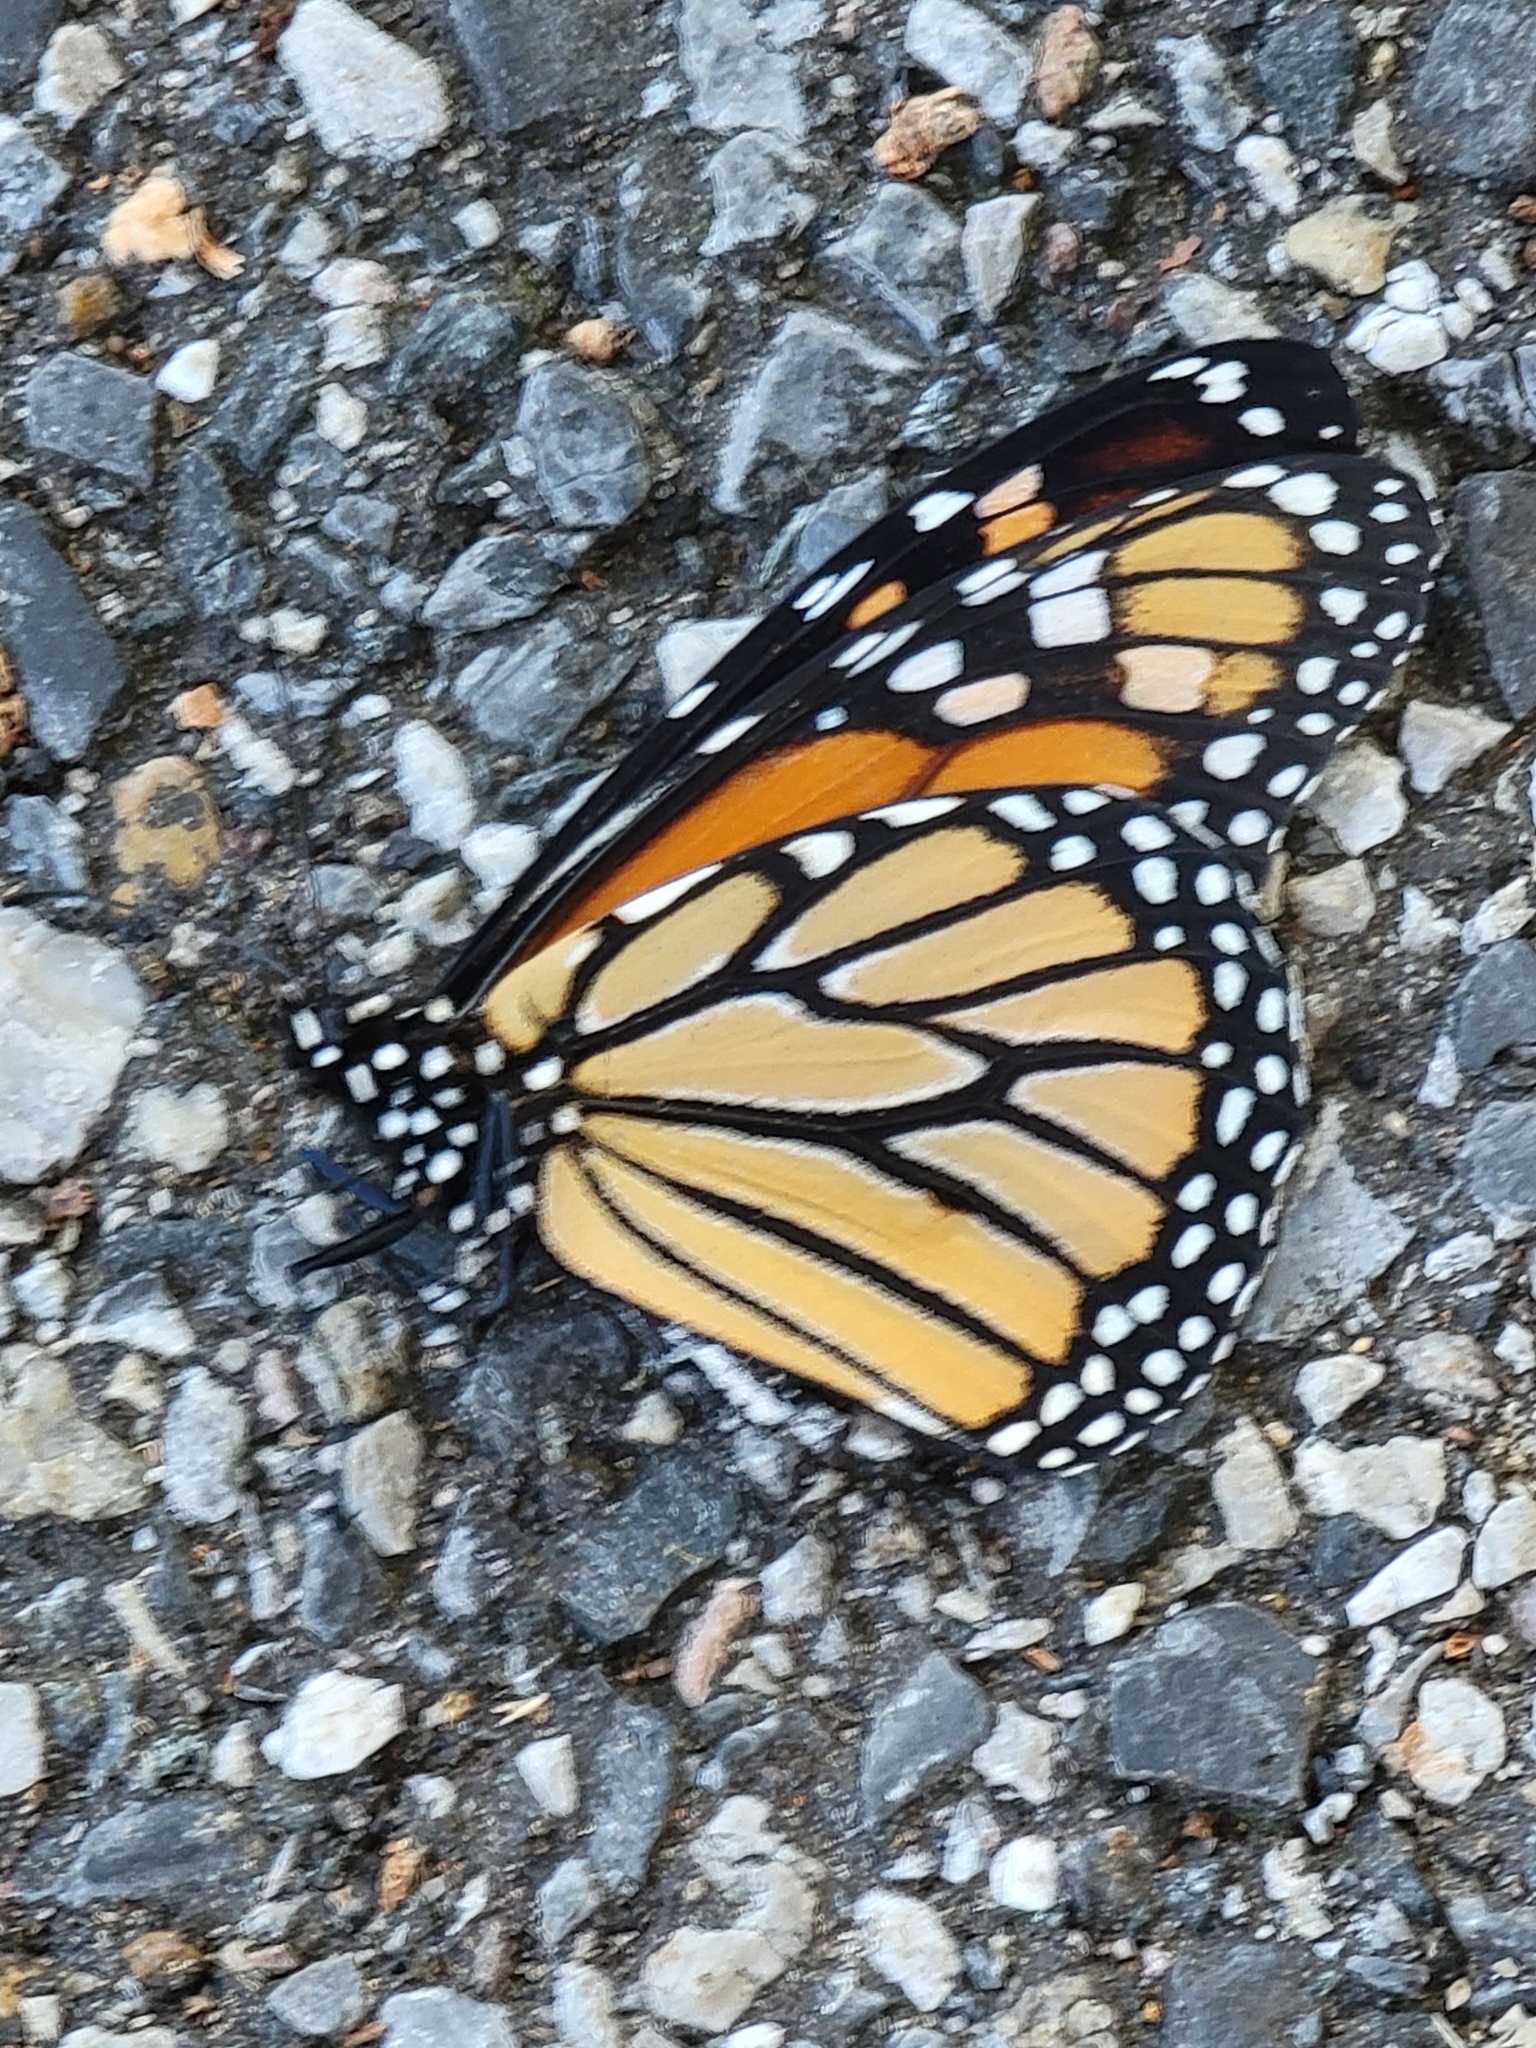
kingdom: Animalia
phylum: Arthropoda
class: Insecta
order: Lepidoptera
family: Nymphalidae
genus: Danaus
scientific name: Danaus plexippus
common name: Monarch
